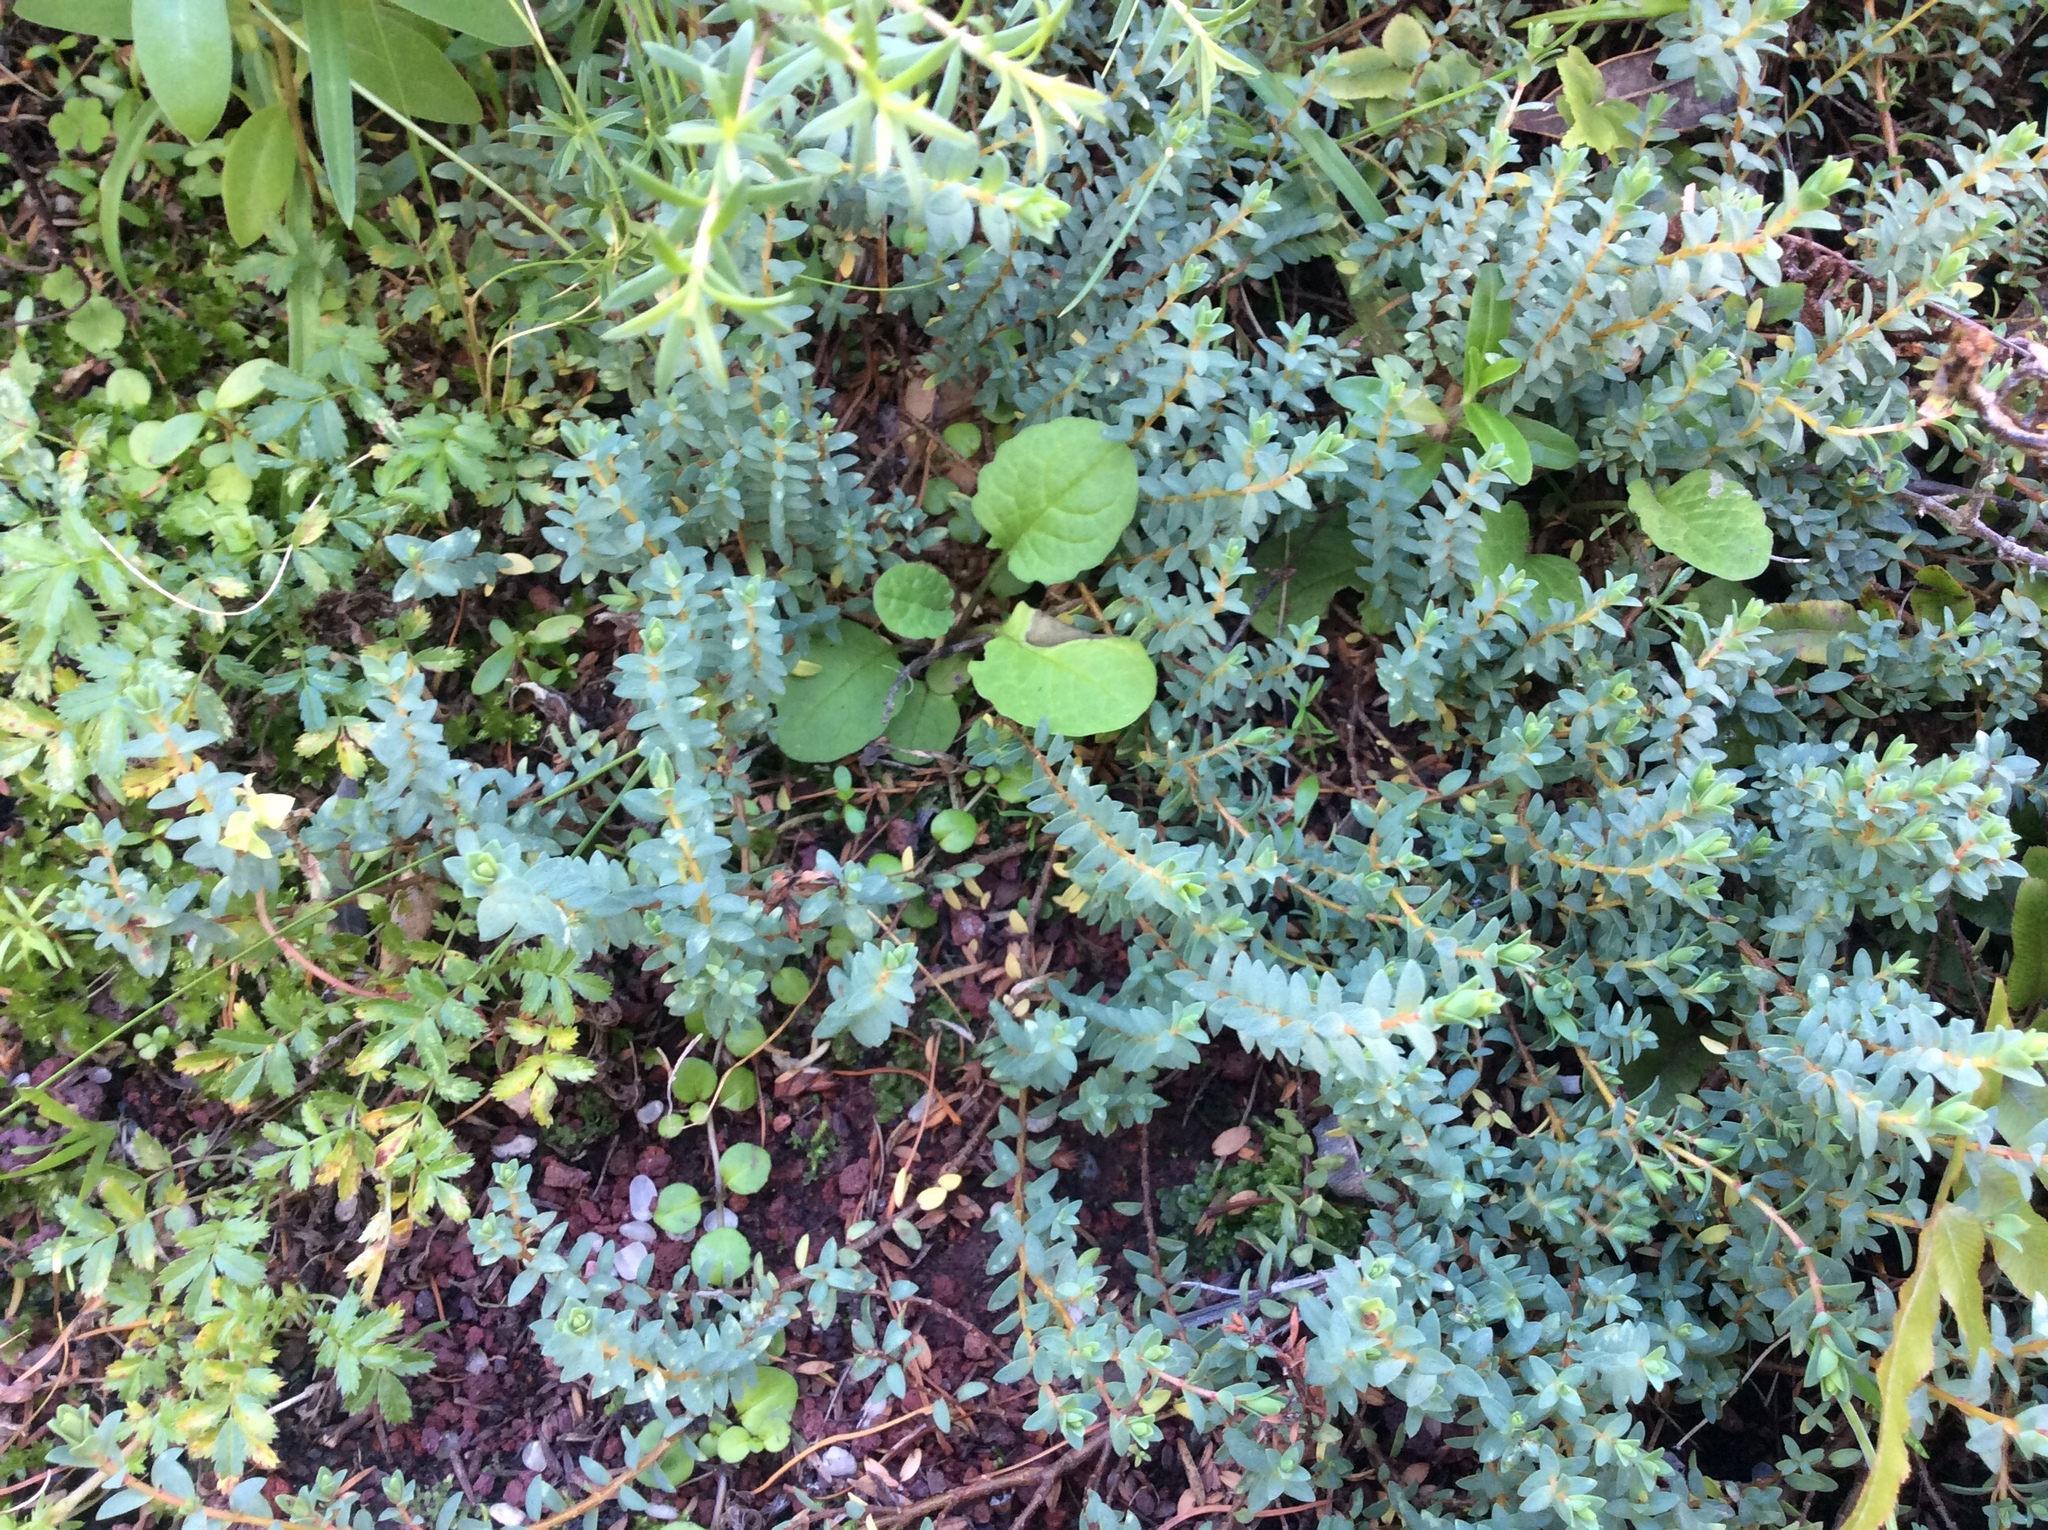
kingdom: Plantae
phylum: Tracheophyta
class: Magnoliopsida
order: Asterales
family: Asteraceae
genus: Jacobaea
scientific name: Jacobaea vulgaris
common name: Stinking willie
